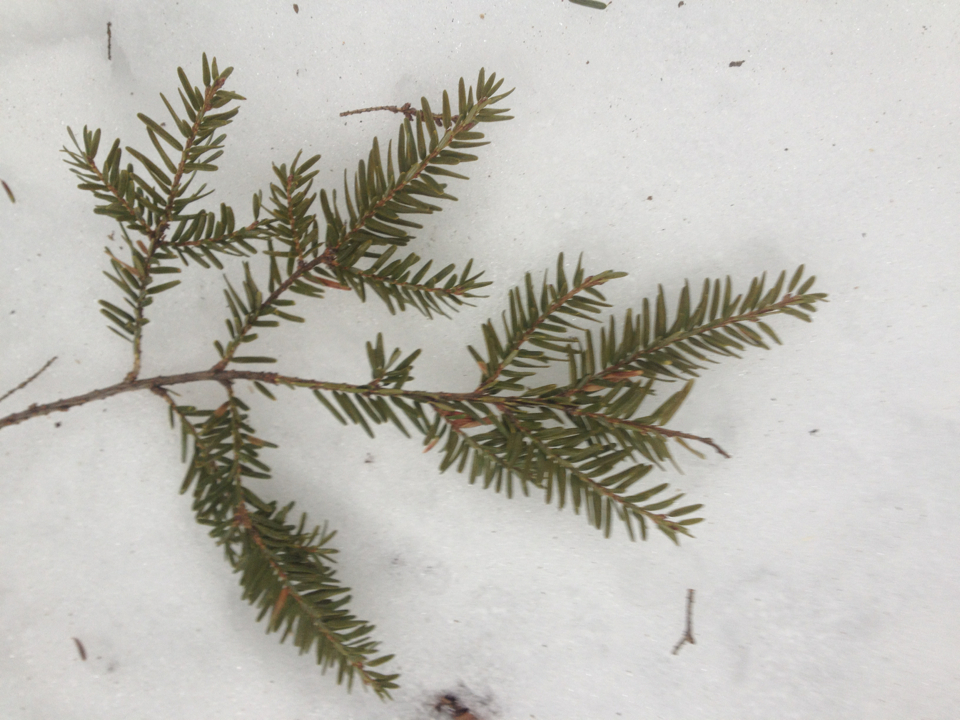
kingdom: Plantae
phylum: Tracheophyta
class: Pinopsida
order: Pinales
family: Pinaceae
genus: Tsuga
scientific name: Tsuga canadensis
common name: Eastern hemlock
